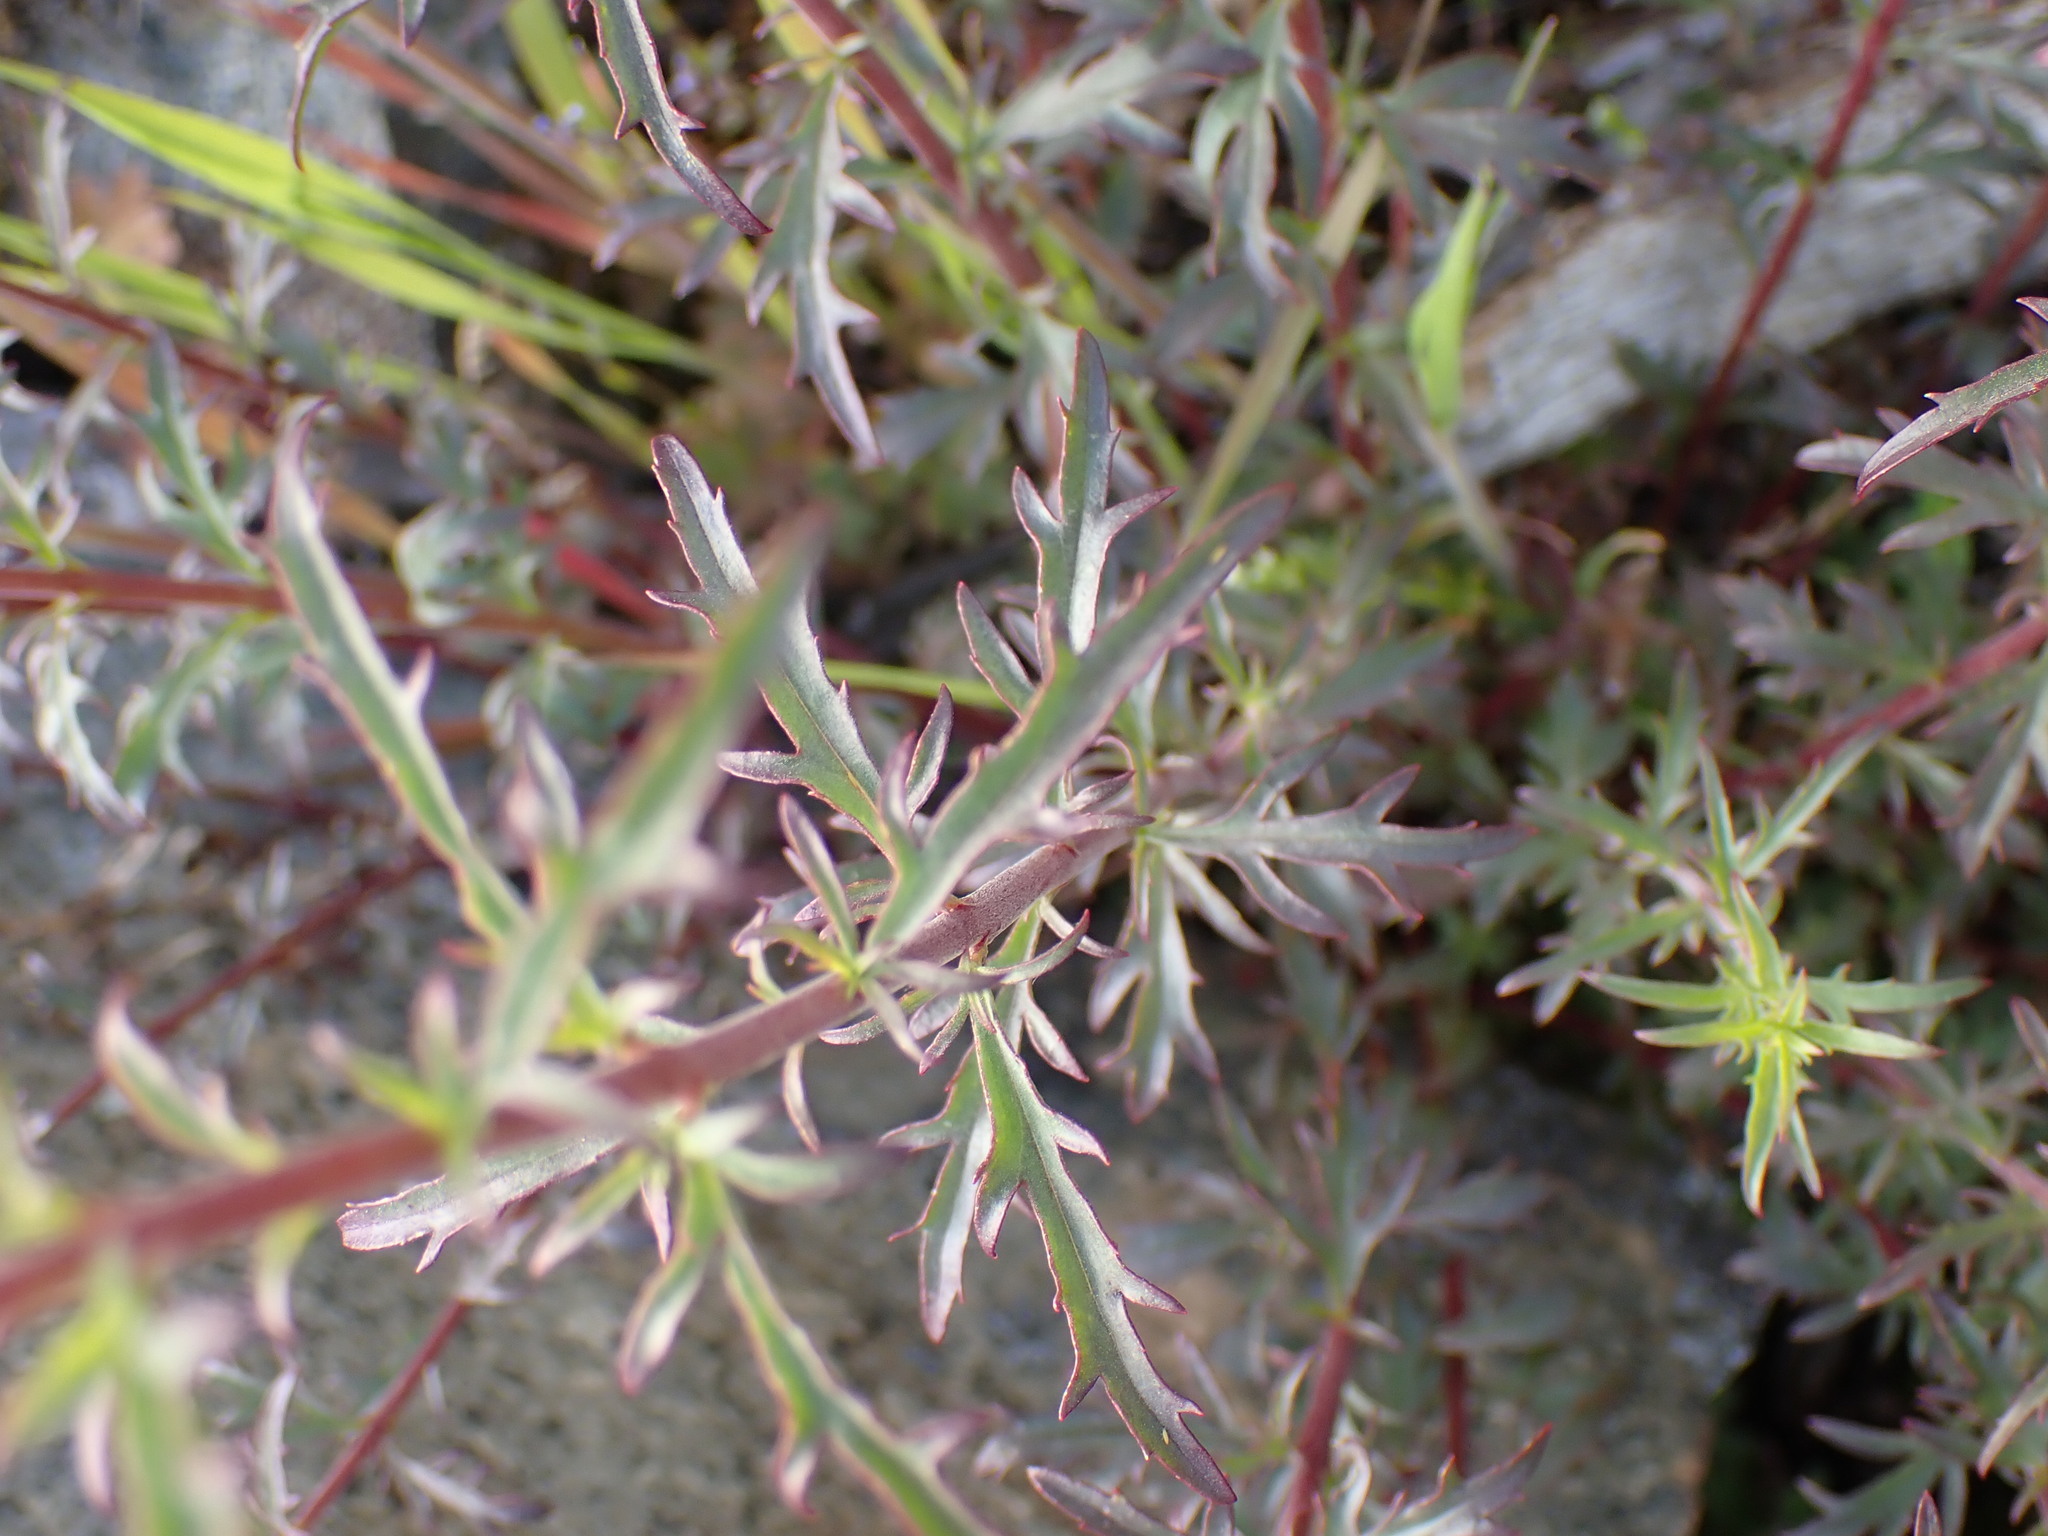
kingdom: Plantae
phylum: Tracheophyta
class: Magnoliopsida
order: Lamiales
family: Plantaginaceae
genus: Penstemon
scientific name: Penstemon richardsonii
